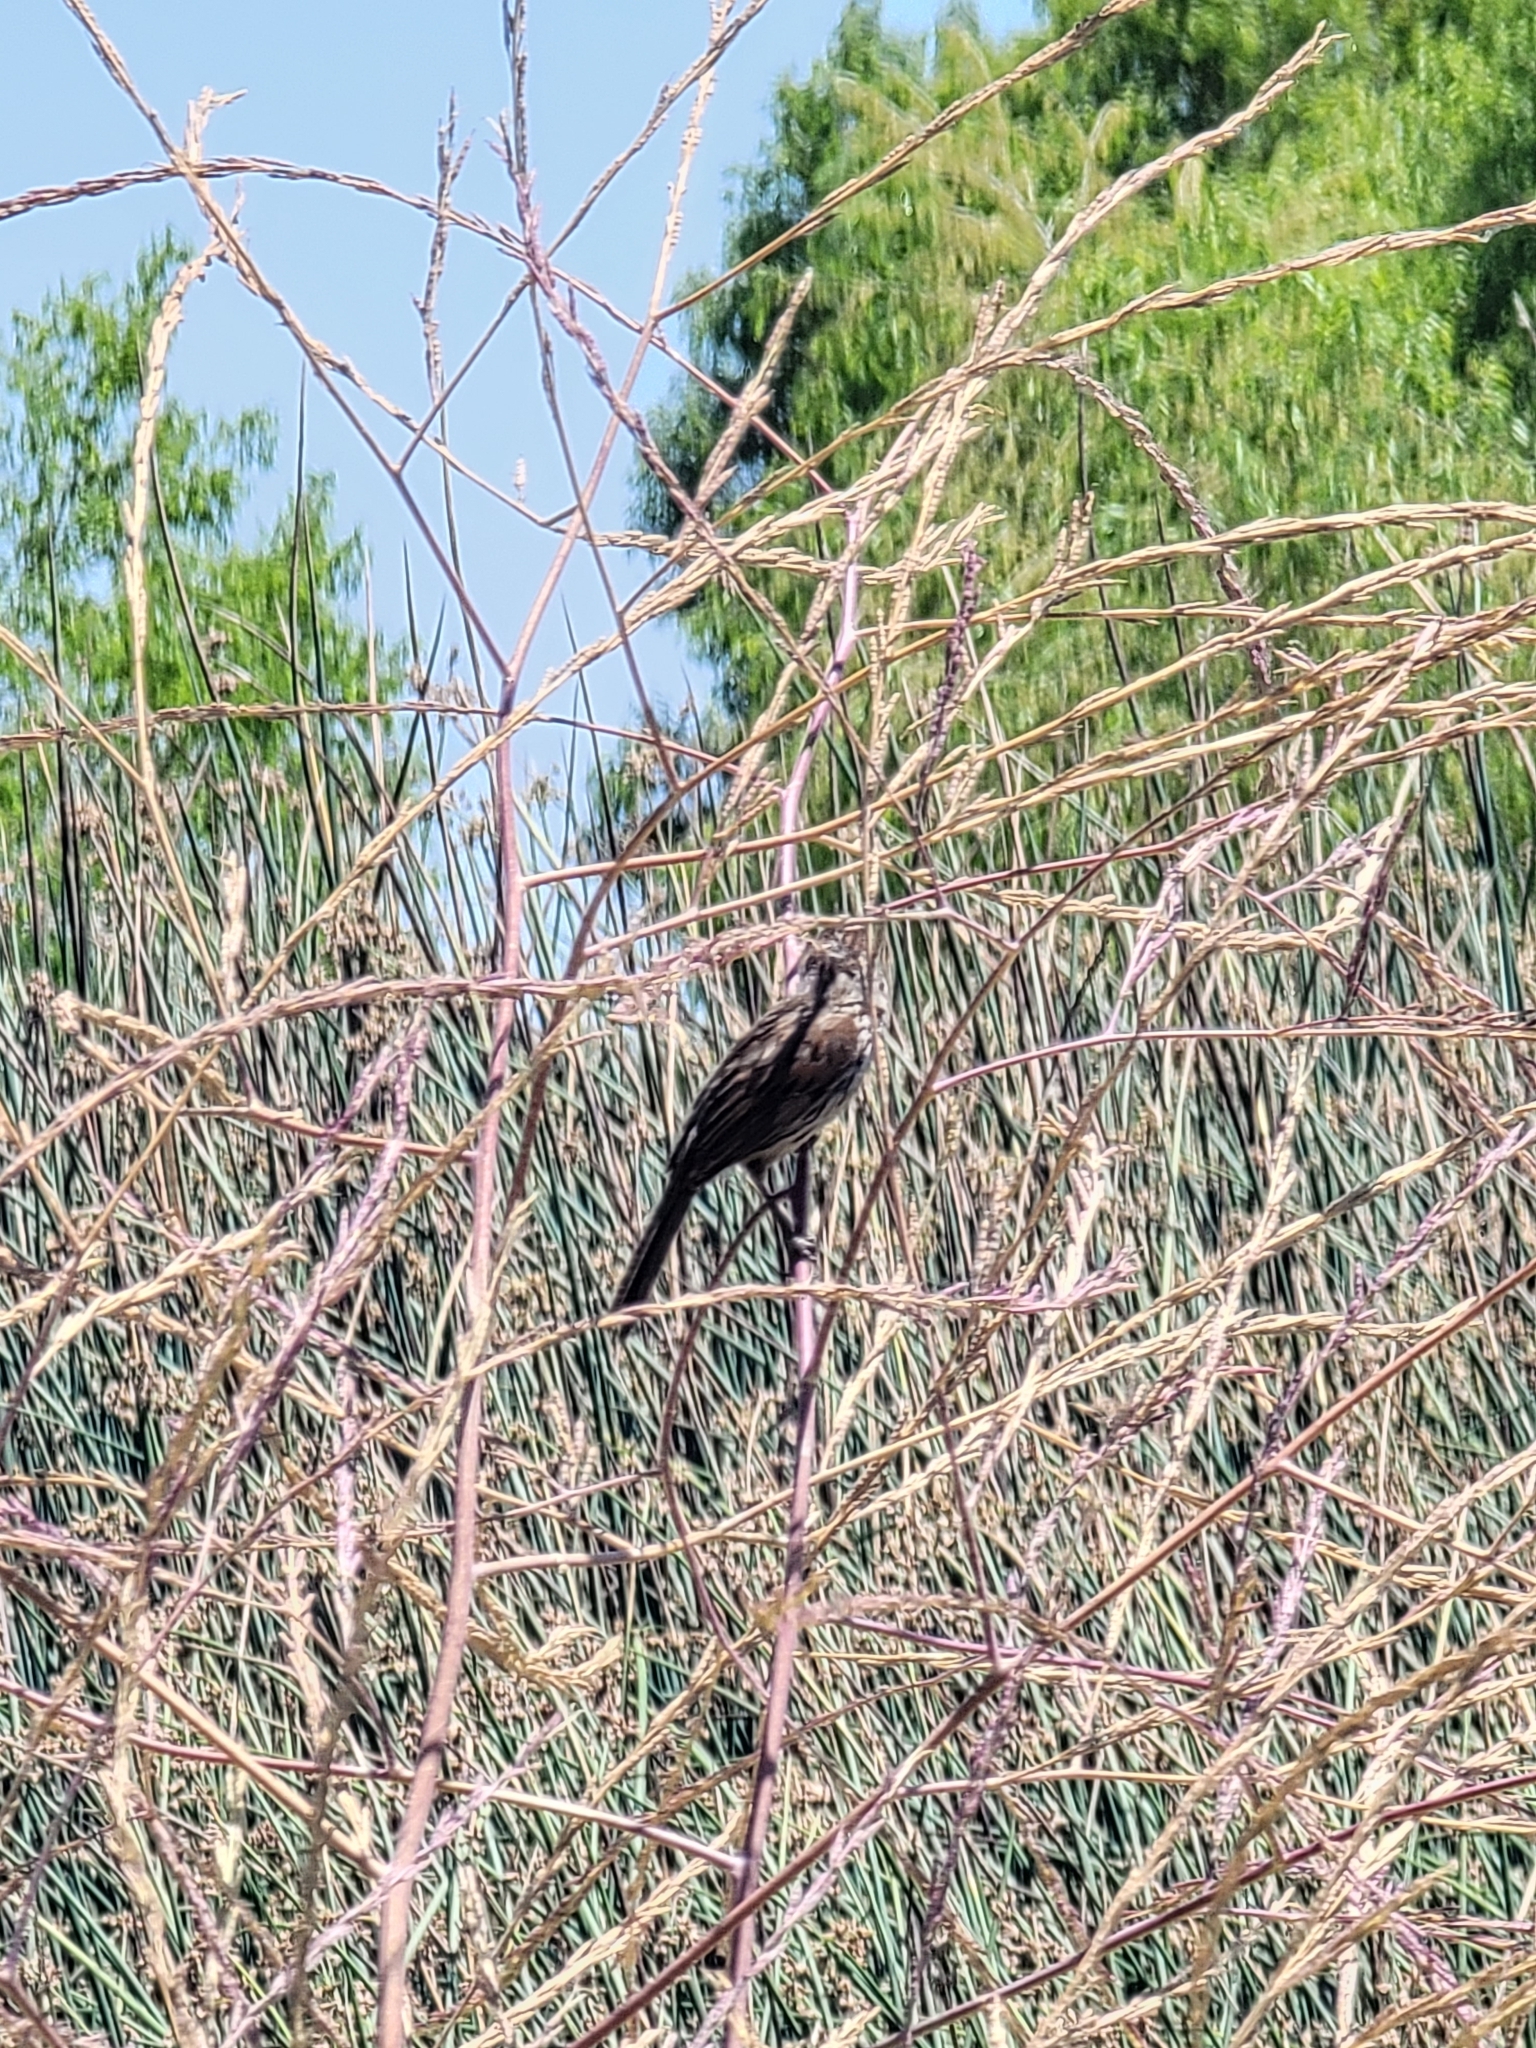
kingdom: Animalia
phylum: Chordata
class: Aves
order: Passeriformes
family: Passerellidae
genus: Melospiza
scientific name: Melospiza melodia
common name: Song sparrow
